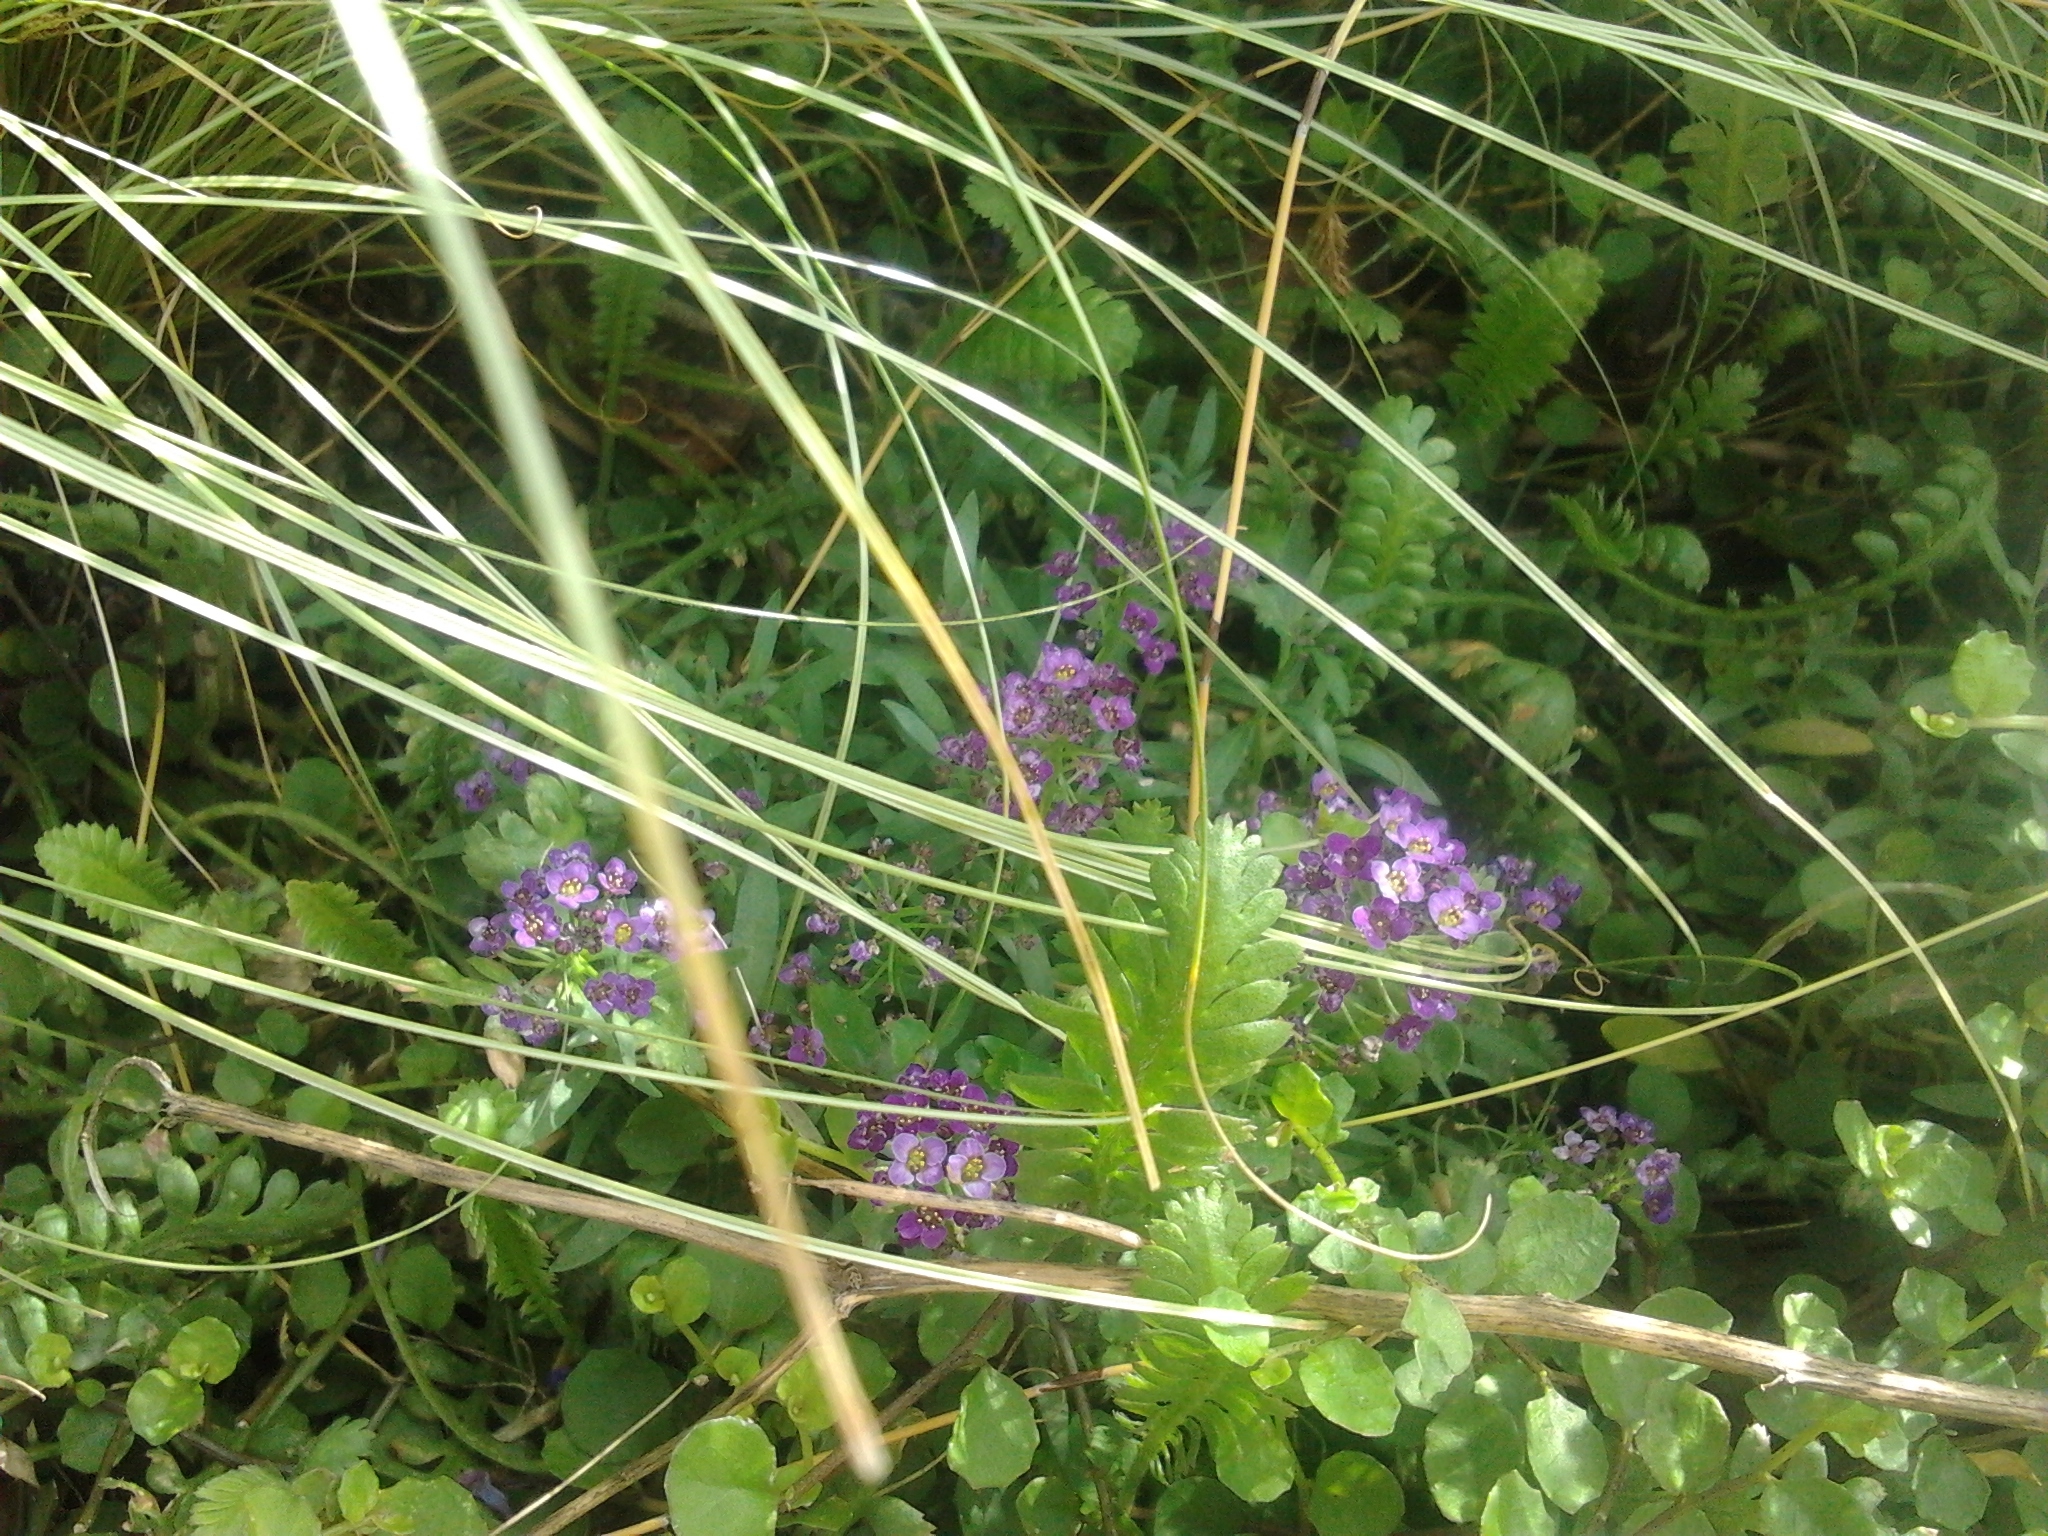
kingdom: Plantae
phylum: Tracheophyta
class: Magnoliopsida
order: Brassicales
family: Brassicaceae
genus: Lobularia
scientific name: Lobularia maritima
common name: Sweet alison
